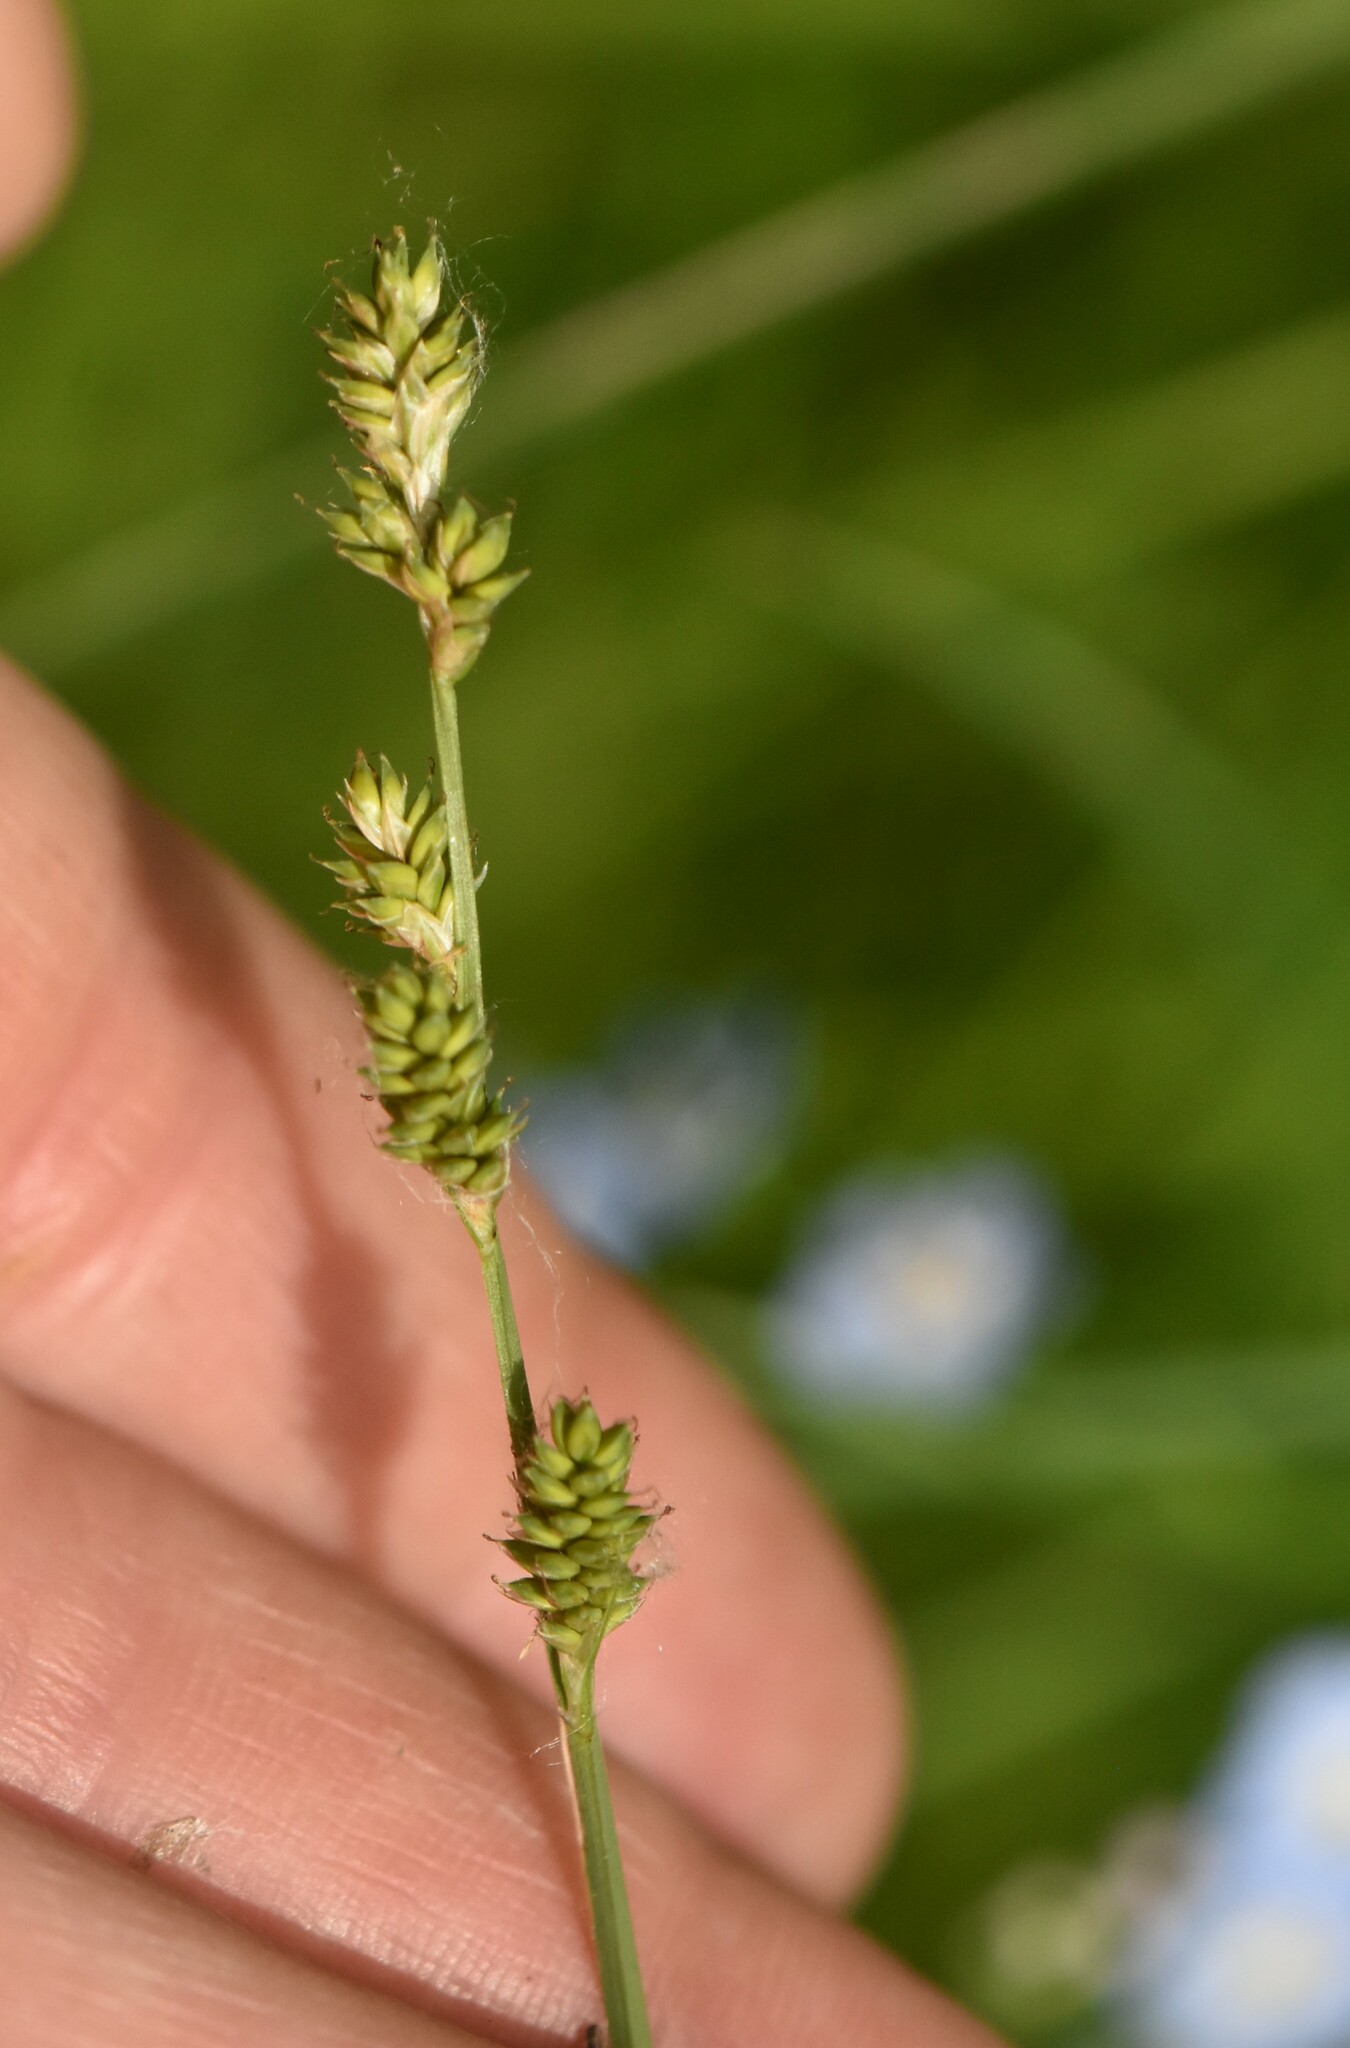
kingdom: Plantae
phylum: Tracheophyta
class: Liliopsida
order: Poales
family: Cyperaceae
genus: Carex
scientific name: Carex canescens
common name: White sedge
